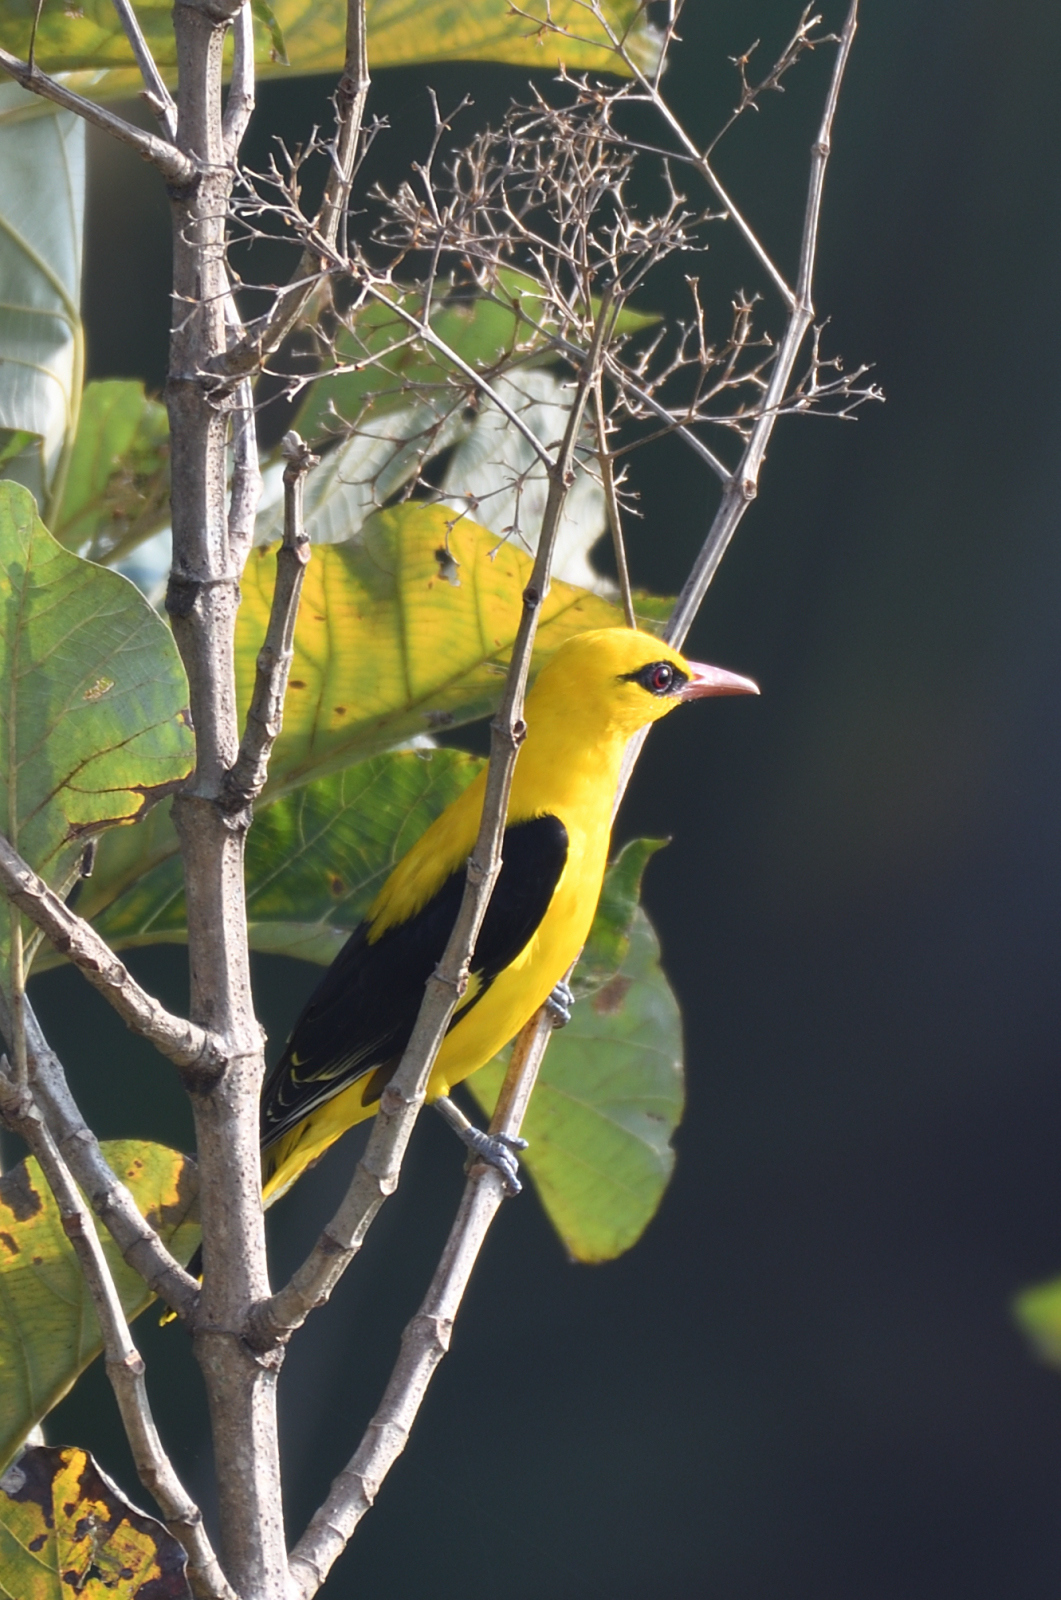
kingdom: Animalia
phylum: Chordata
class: Aves
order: Passeriformes
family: Oriolidae
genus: Oriolus
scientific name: Oriolus kundoo
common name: Indian golden oriole
